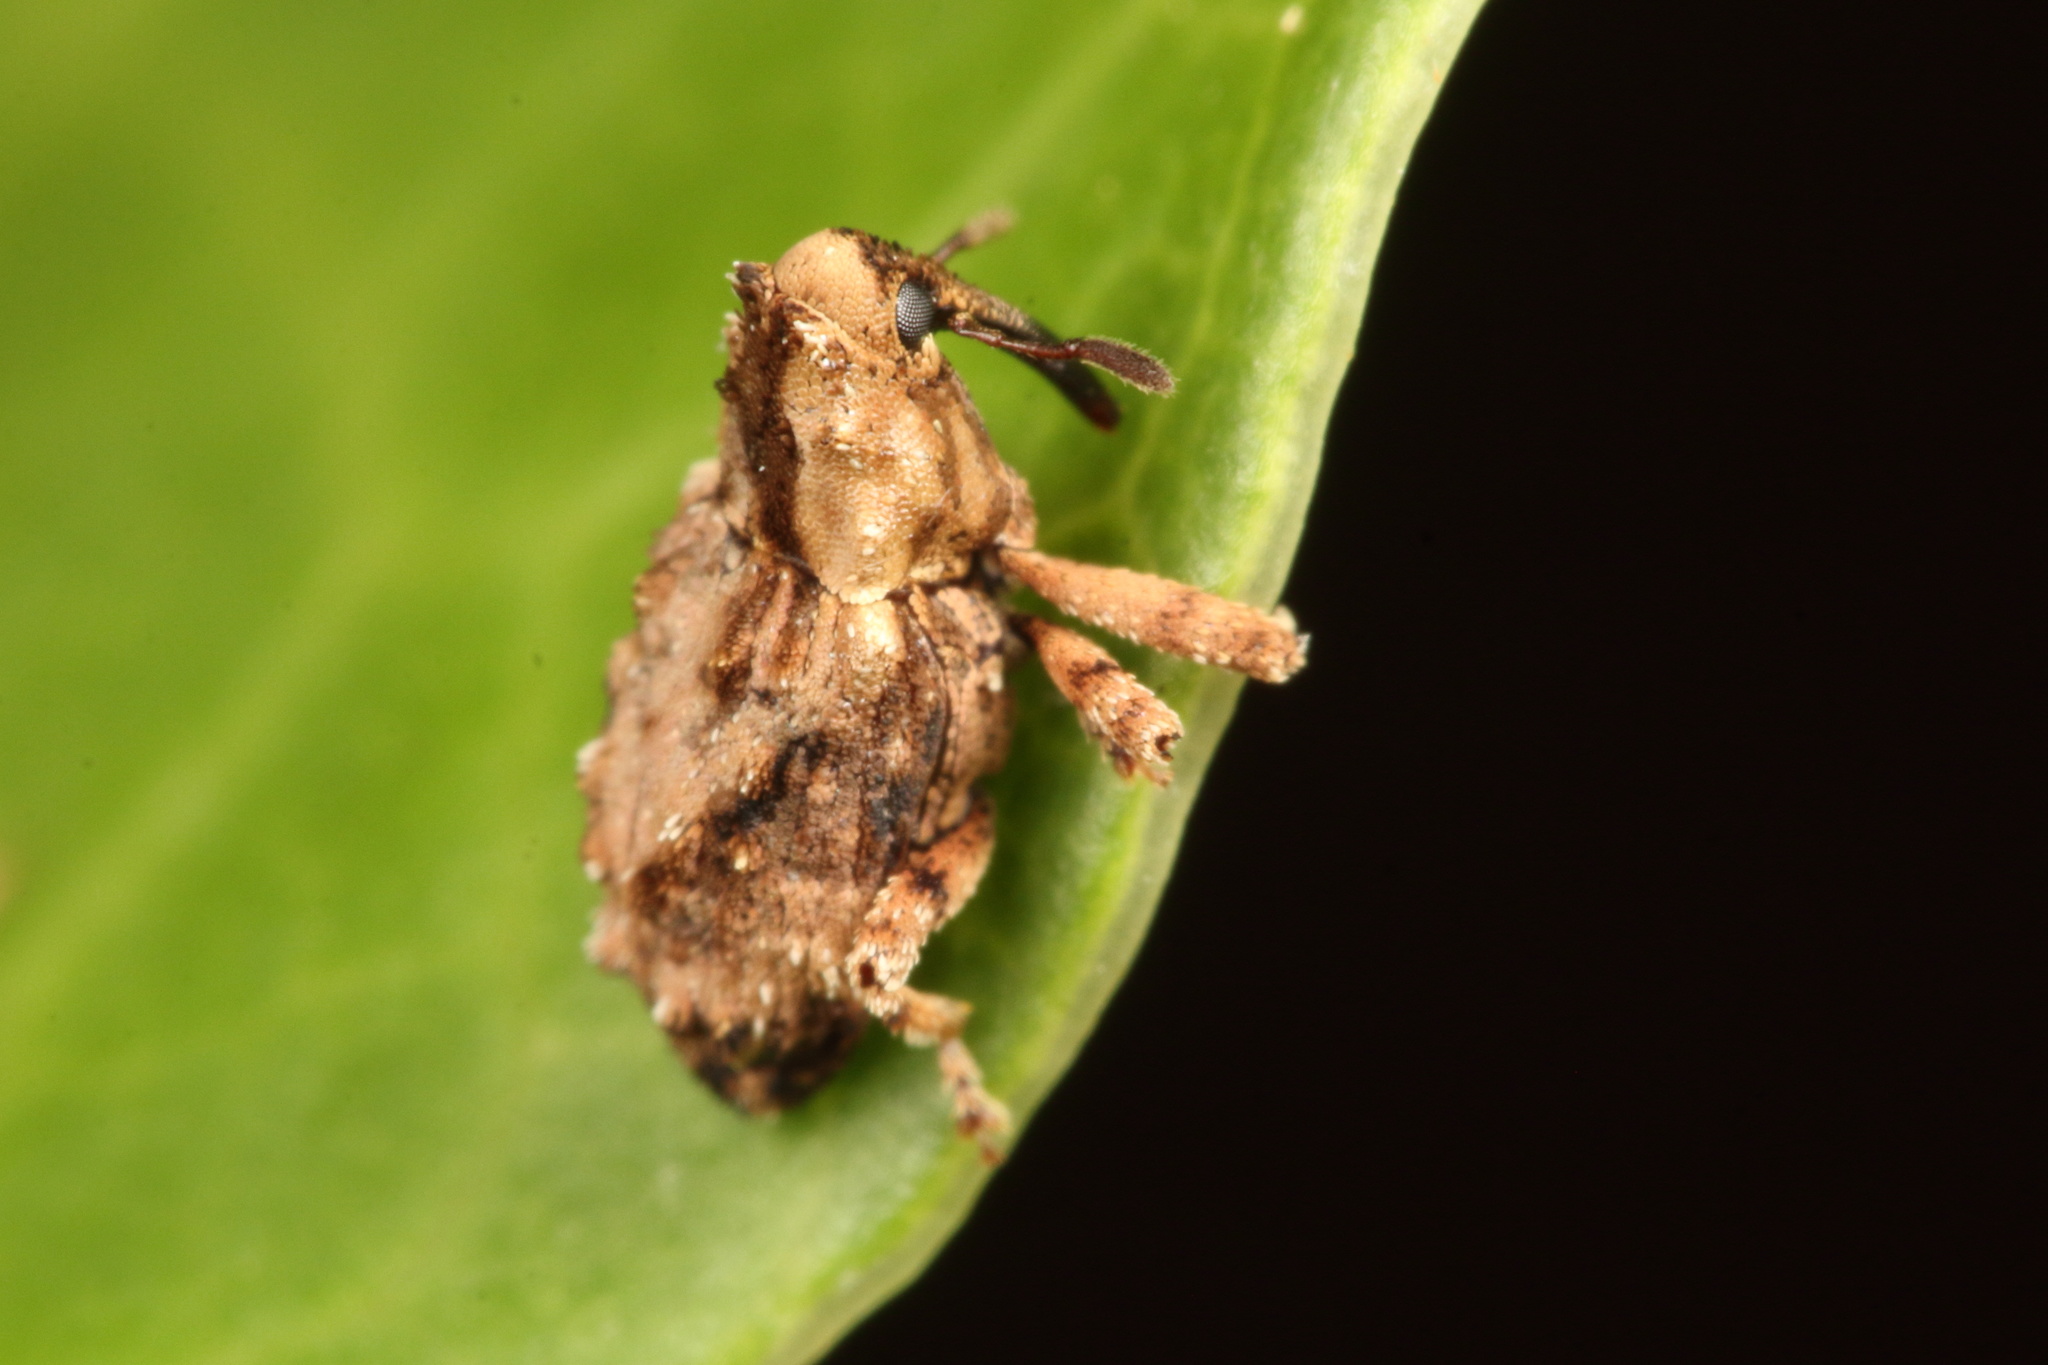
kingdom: Animalia
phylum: Arthropoda
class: Insecta
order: Coleoptera
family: Curculionidae
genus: Mecistostylus
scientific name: Mecistostylus douei
